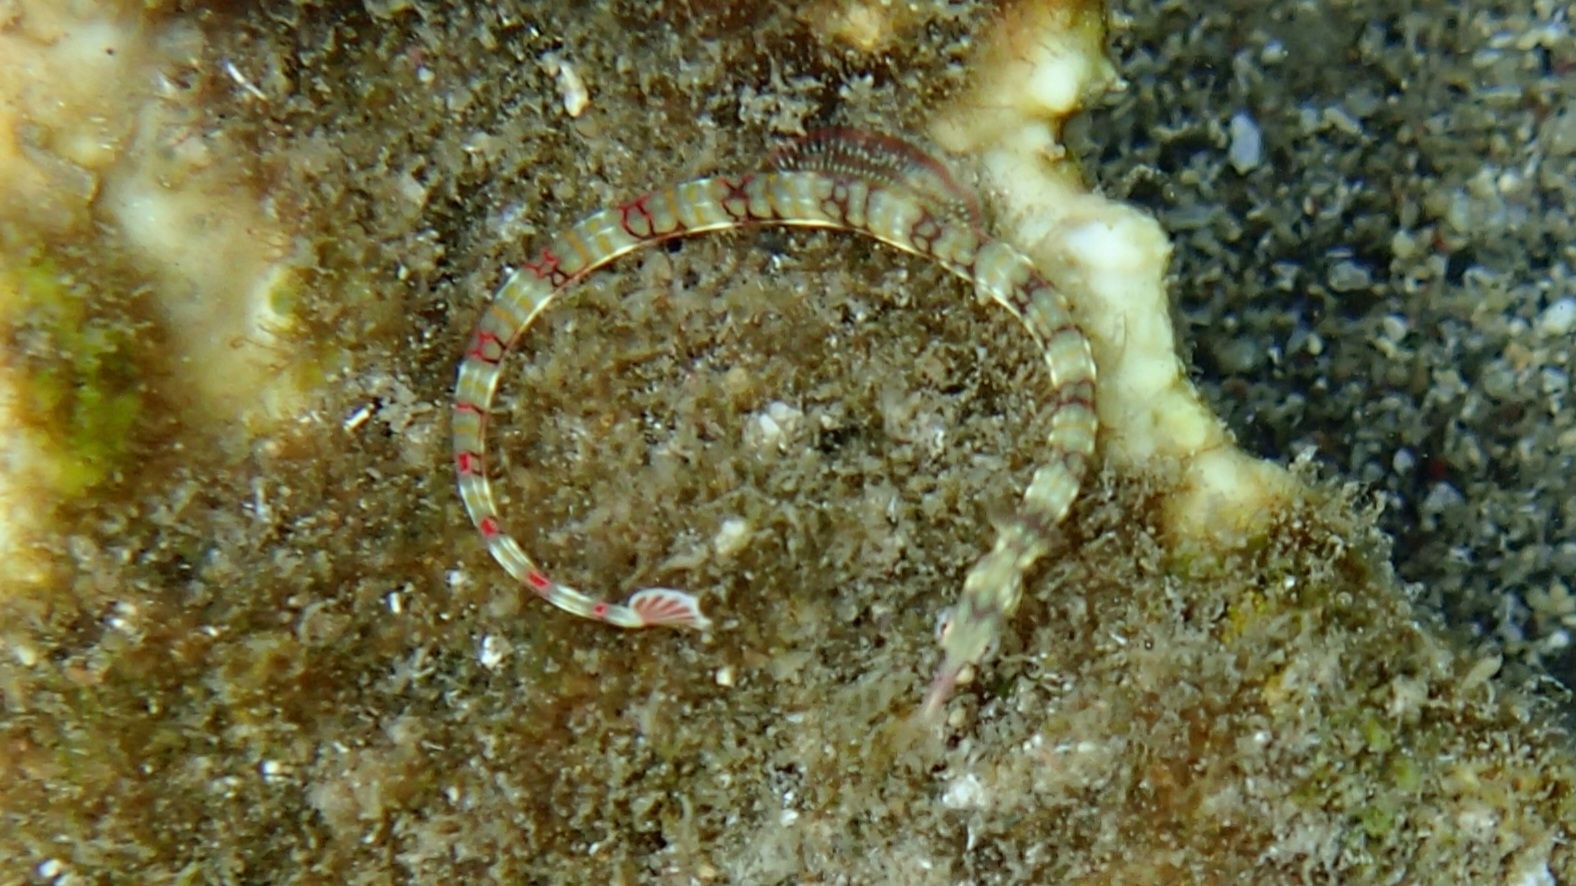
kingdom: Animalia
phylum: Chordata
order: Syngnathiformes
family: Syngnathidae
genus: Corythoichthys
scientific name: Corythoichthys flavofasciatus
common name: Banded pipefish
